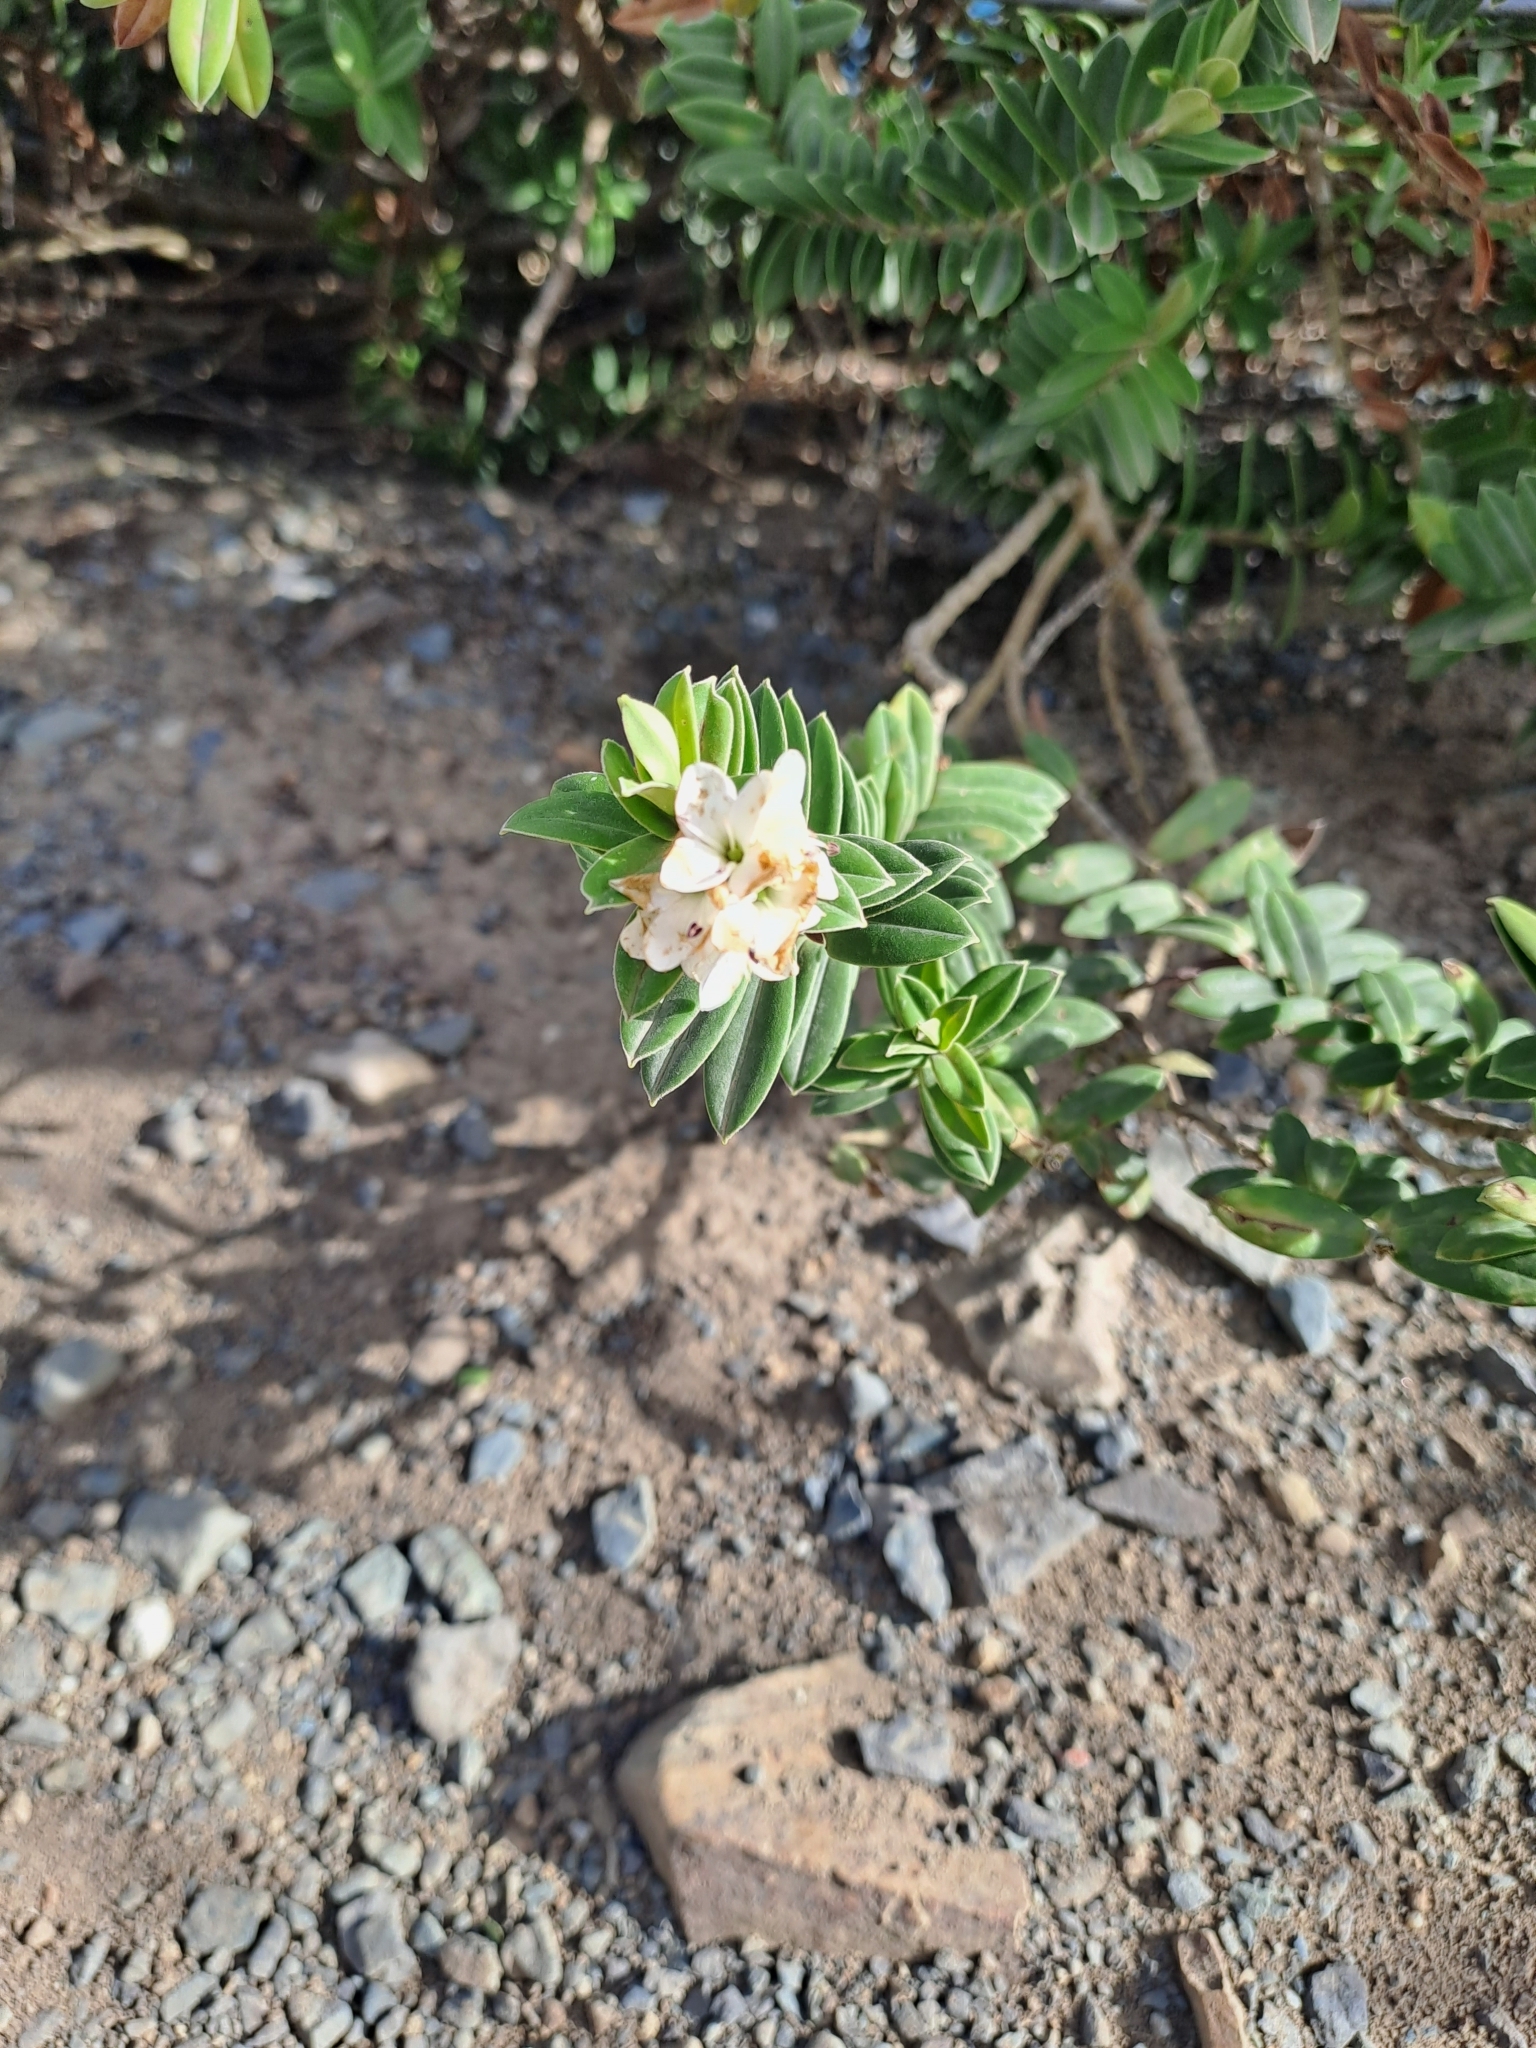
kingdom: Plantae
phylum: Tracheophyta
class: Magnoliopsida
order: Lamiales
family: Plantaginaceae
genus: Veronica
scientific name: Veronica elliptica
